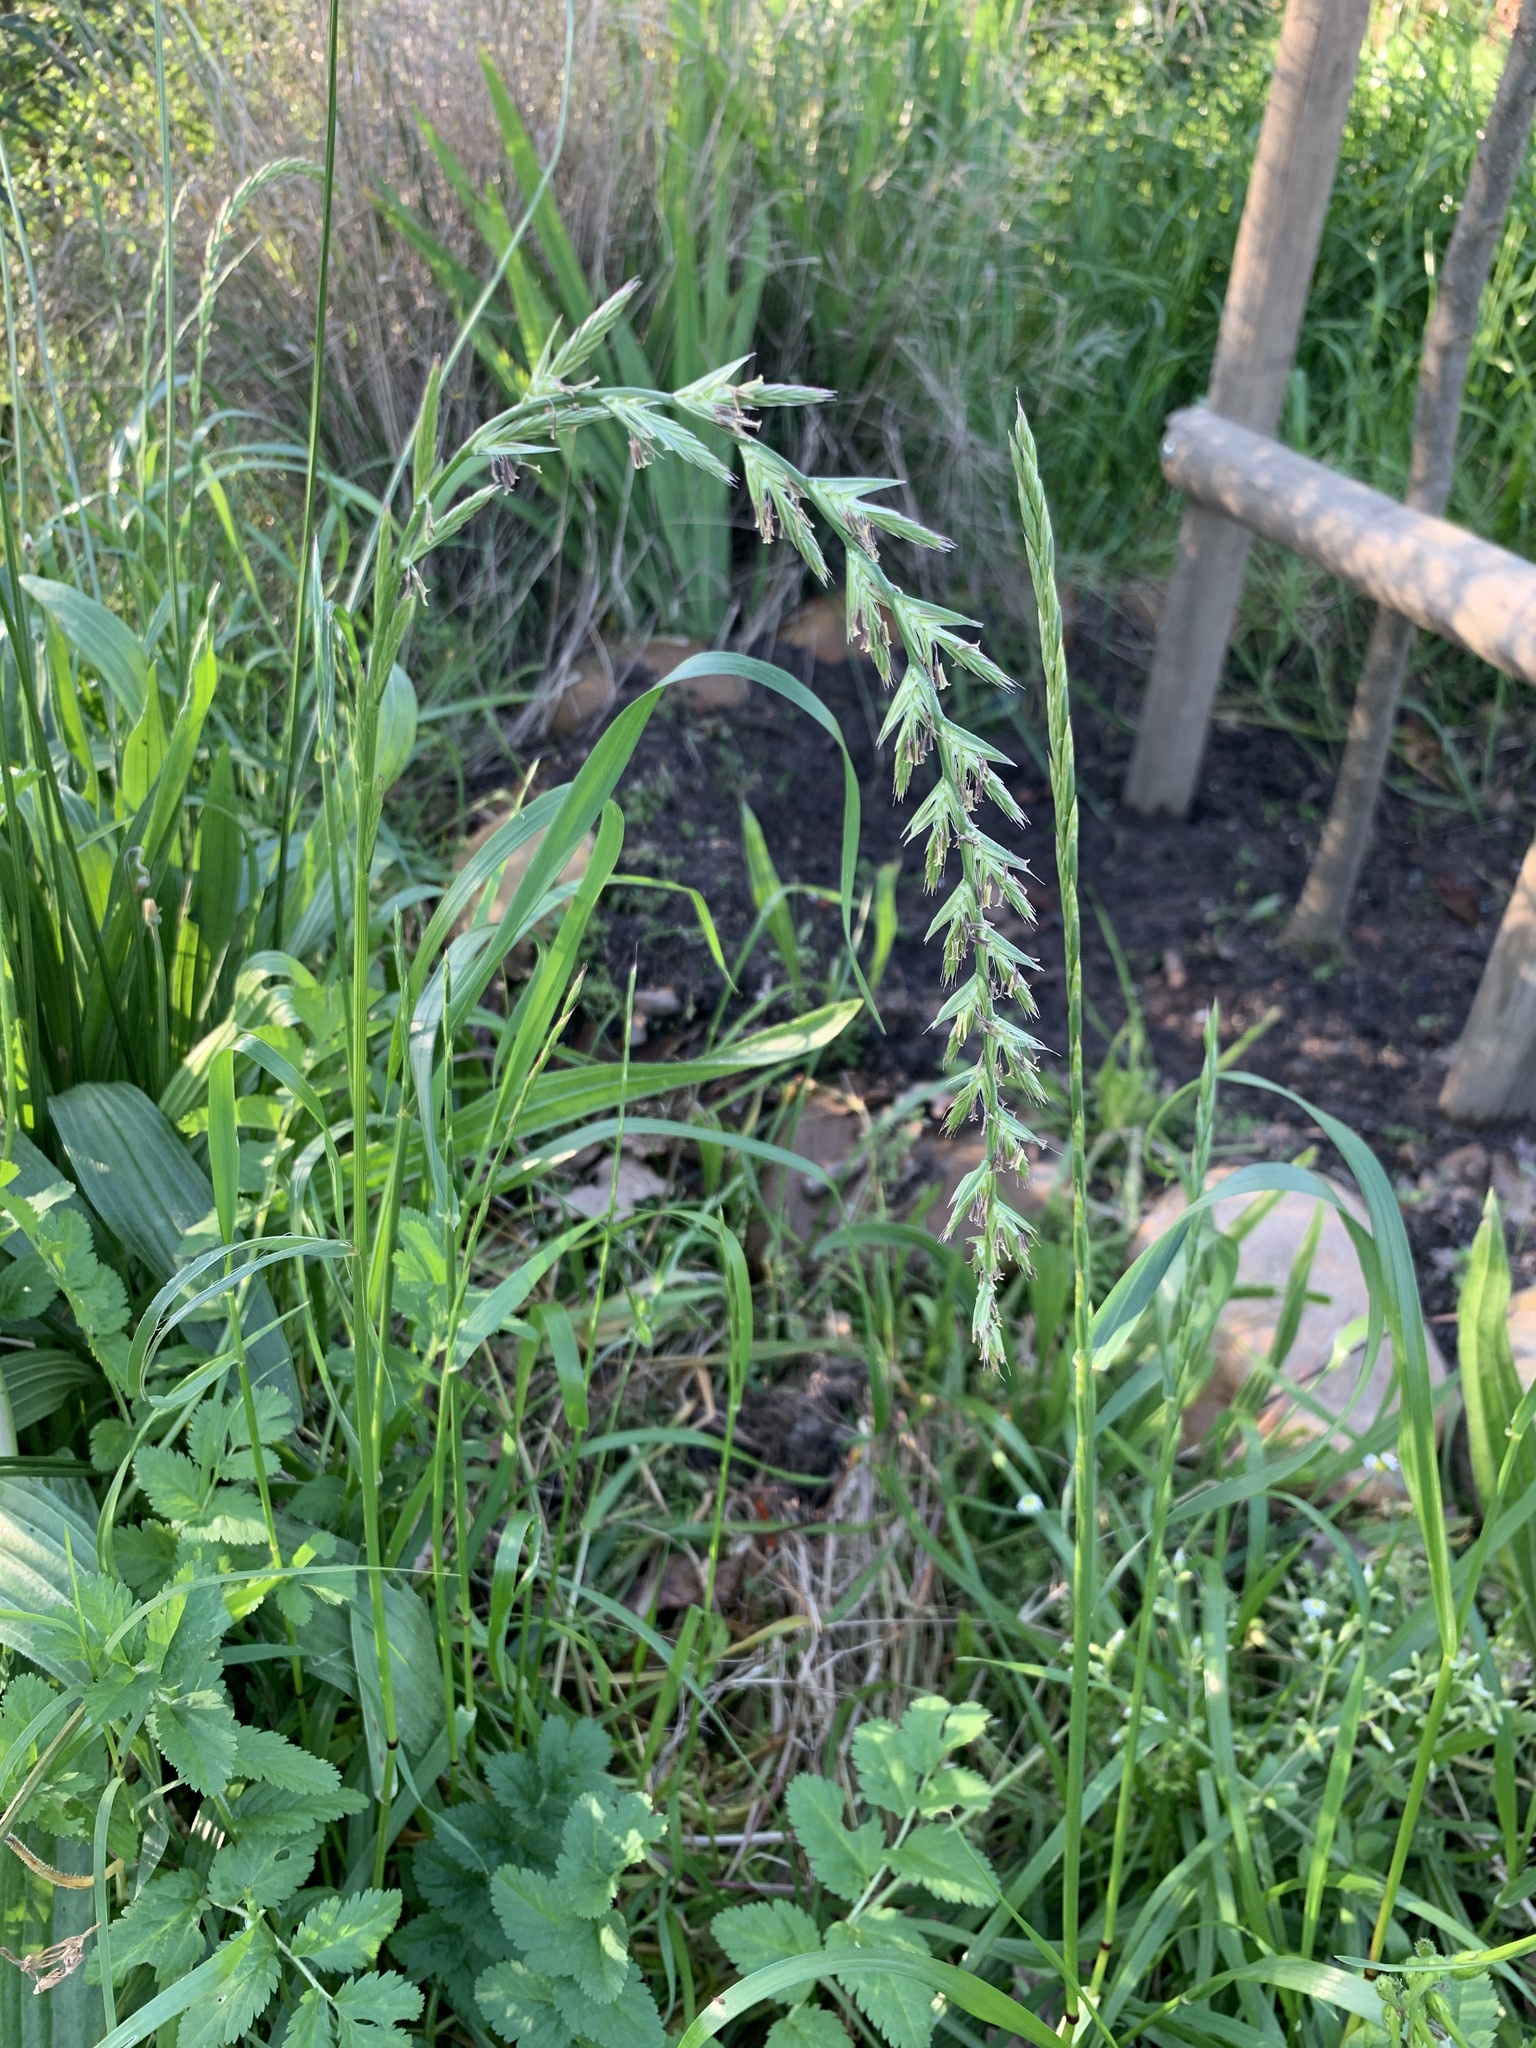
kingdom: Plantae
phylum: Tracheophyta
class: Liliopsida
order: Poales
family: Poaceae
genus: Lolium
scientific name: Lolium
